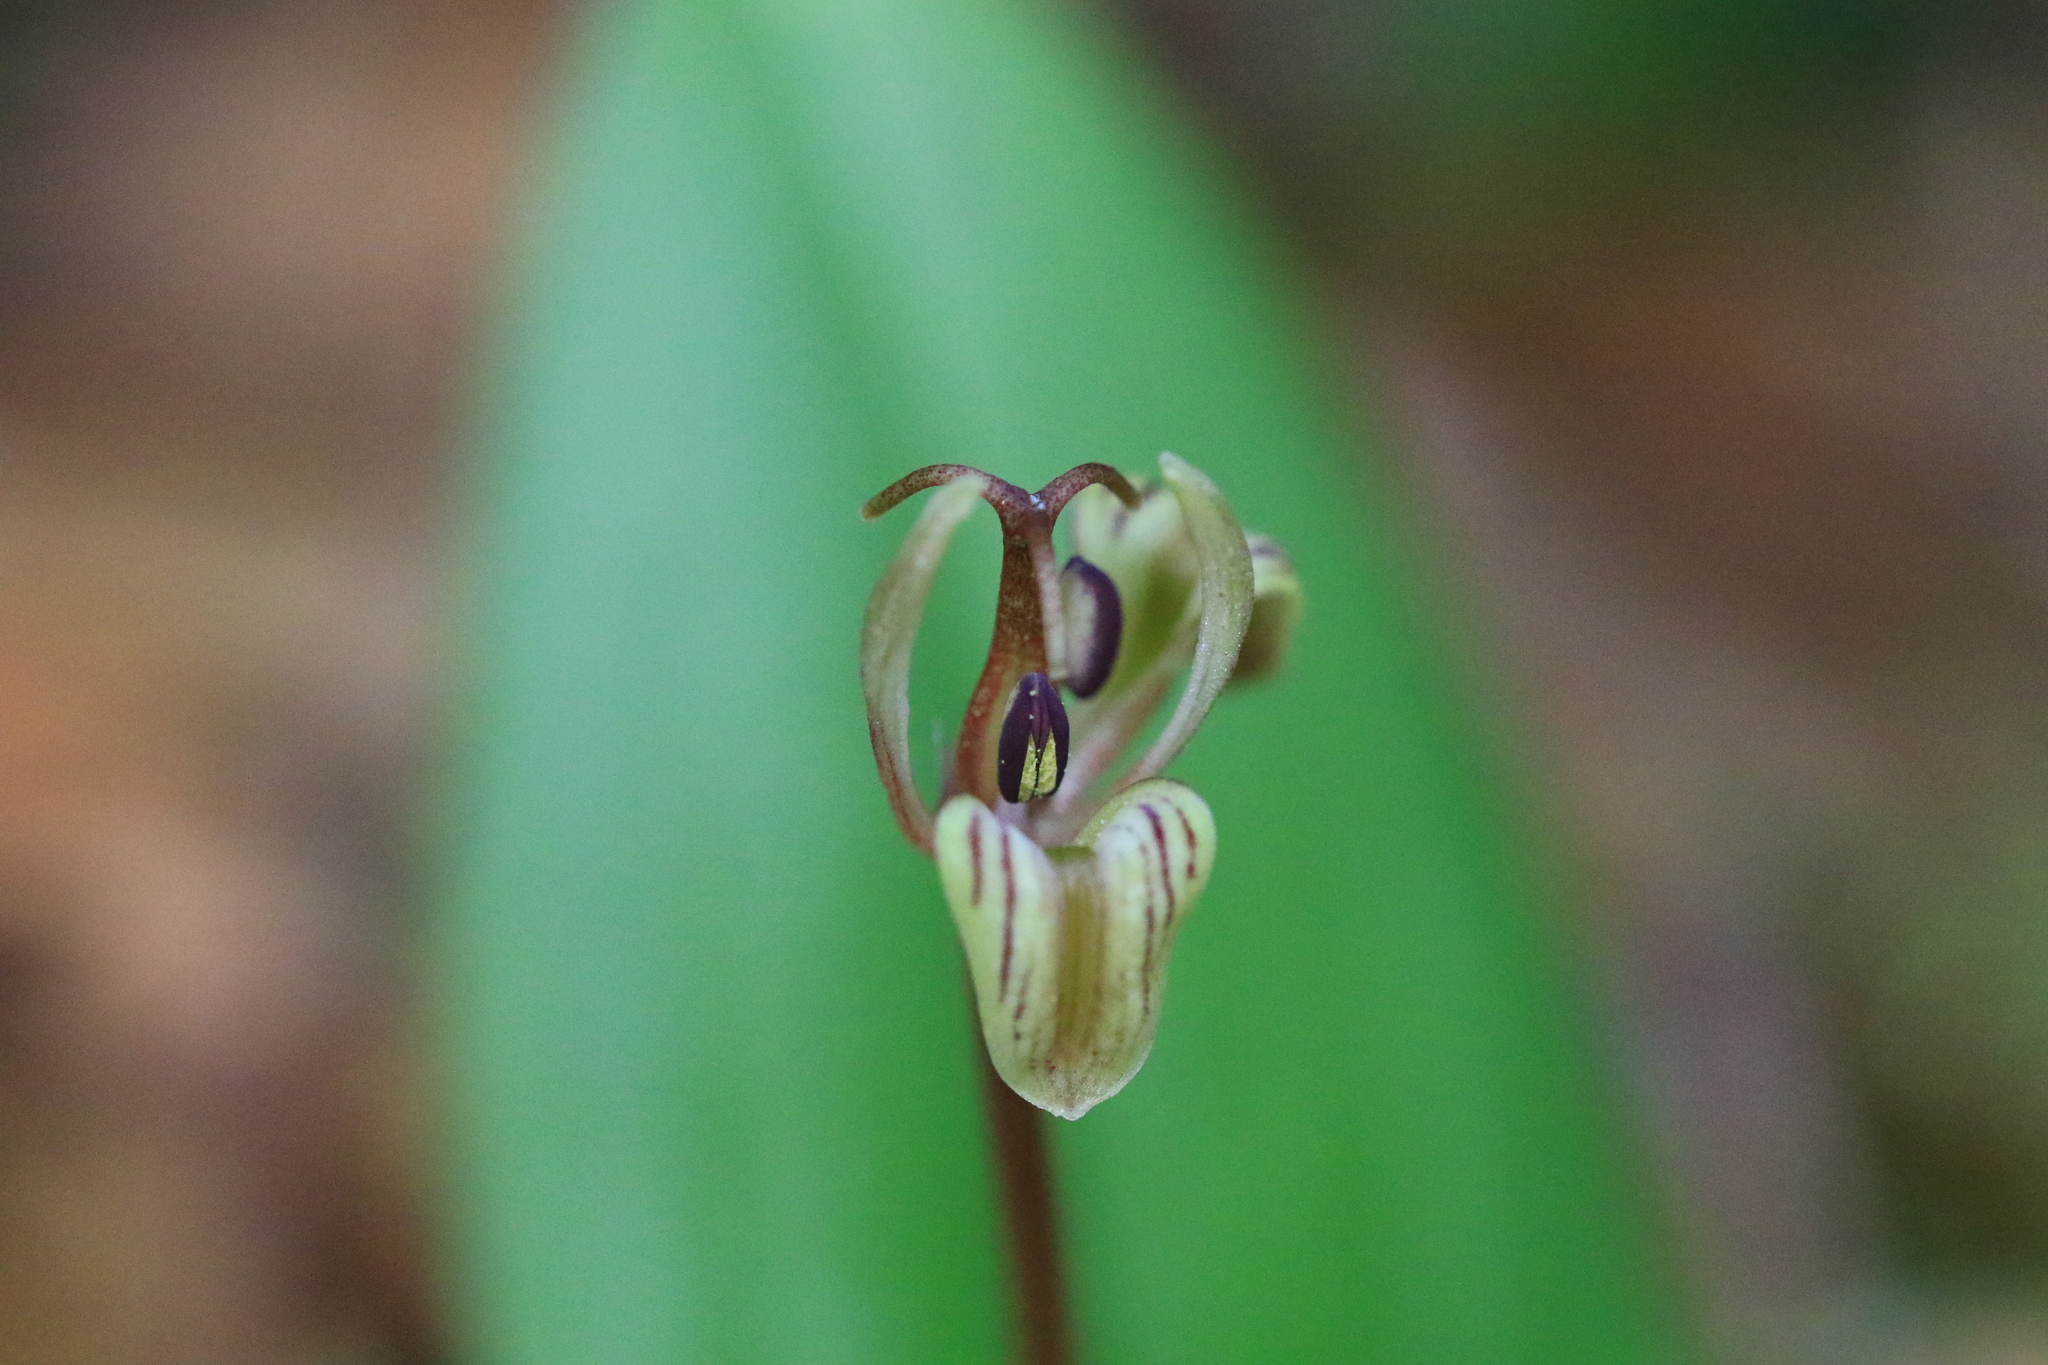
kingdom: Plantae
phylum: Tracheophyta
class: Liliopsida
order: Liliales
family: Liliaceae
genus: Scoliopus
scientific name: Scoliopus hallii
